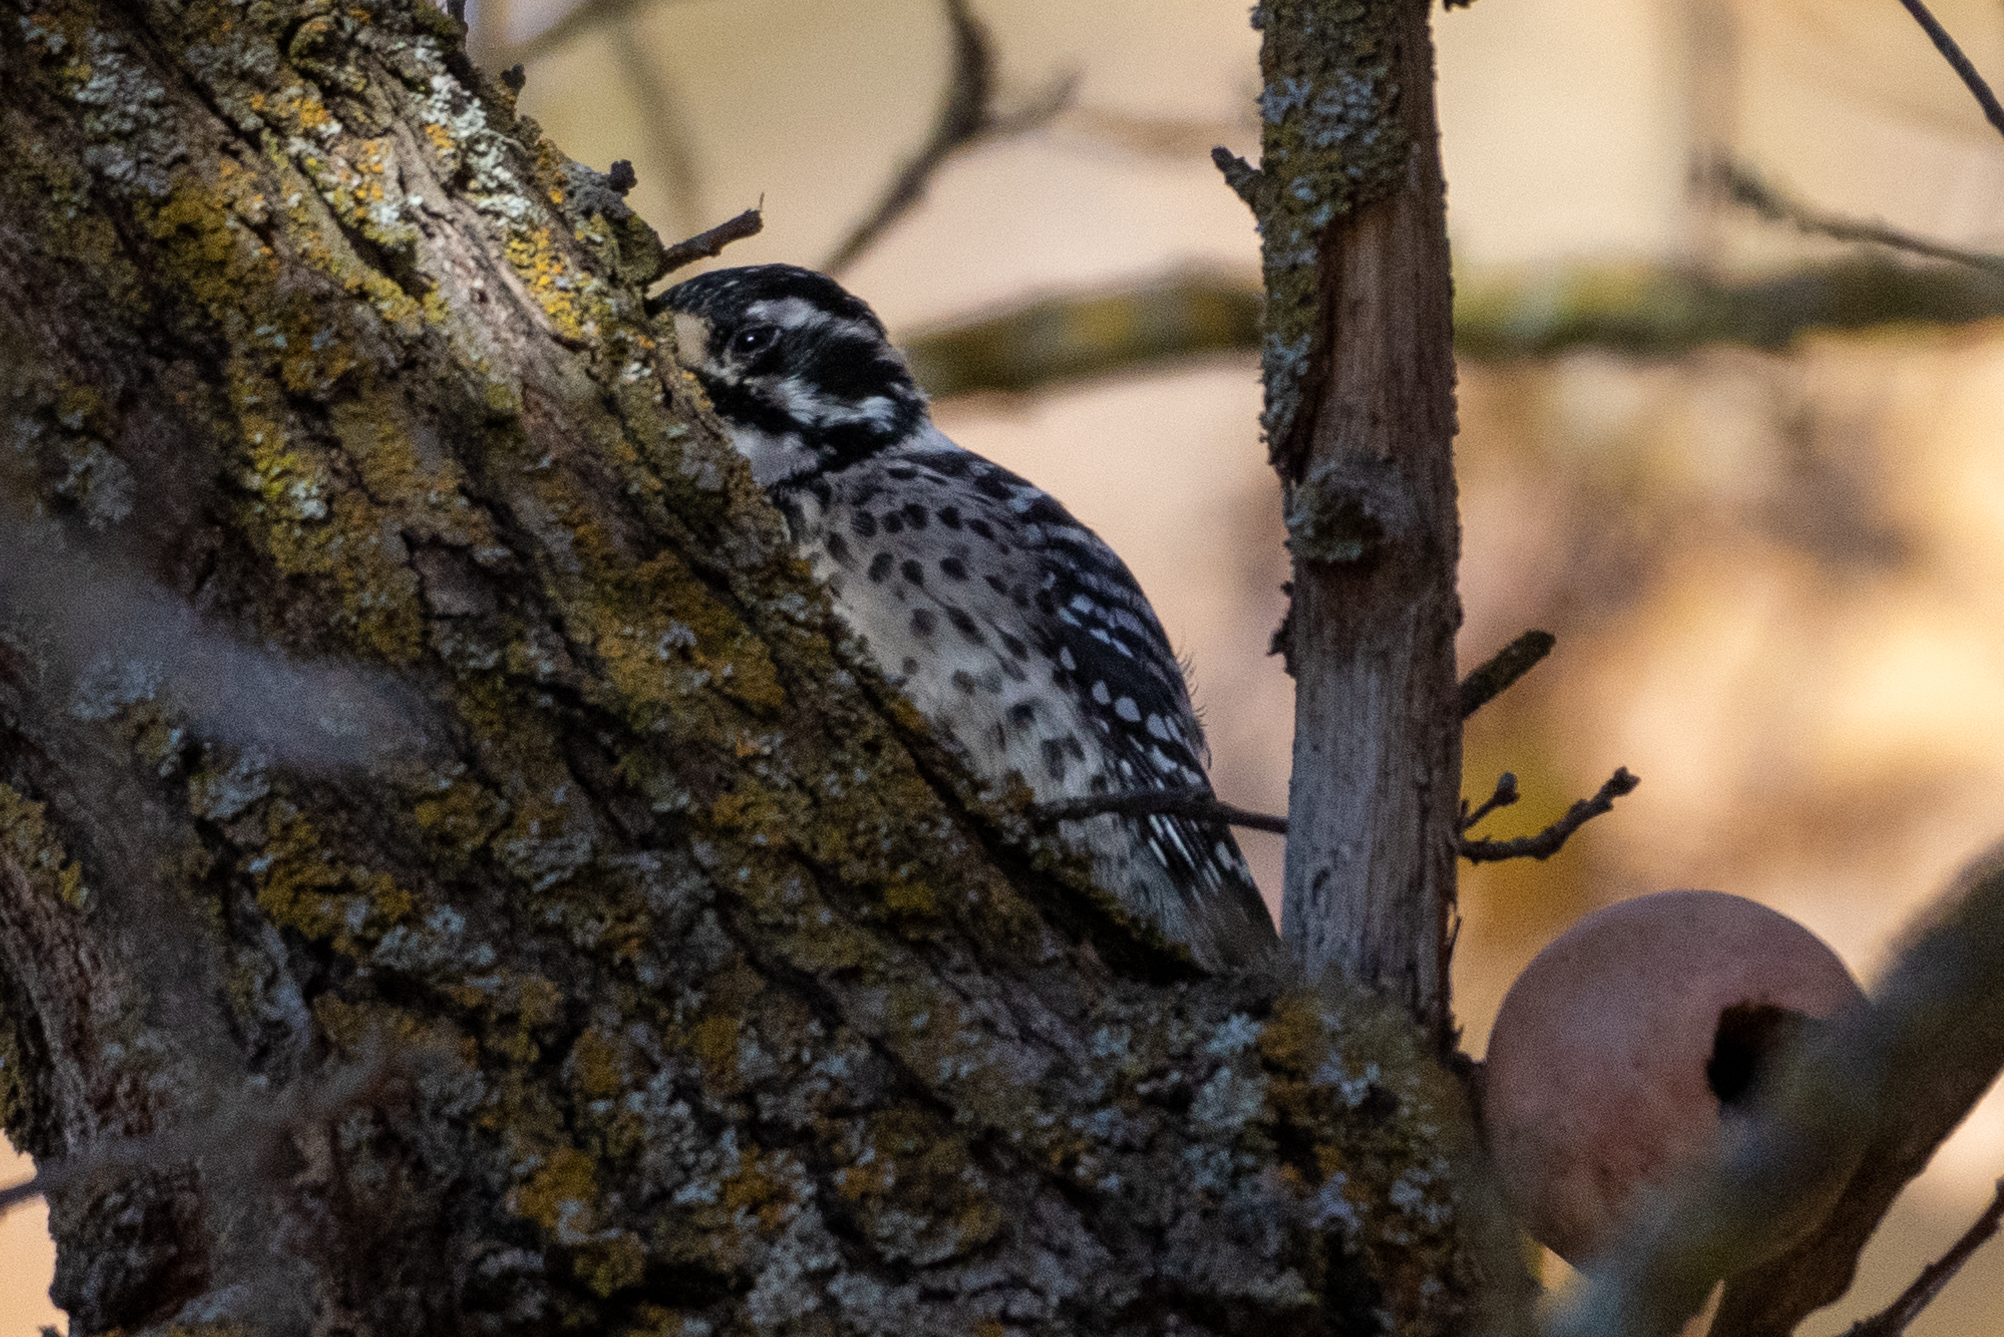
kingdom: Animalia
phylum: Chordata
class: Aves
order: Piciformes
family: Picidae
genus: Dryobates
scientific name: Dryobates nuttallii
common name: Nuttall's woodpecker
